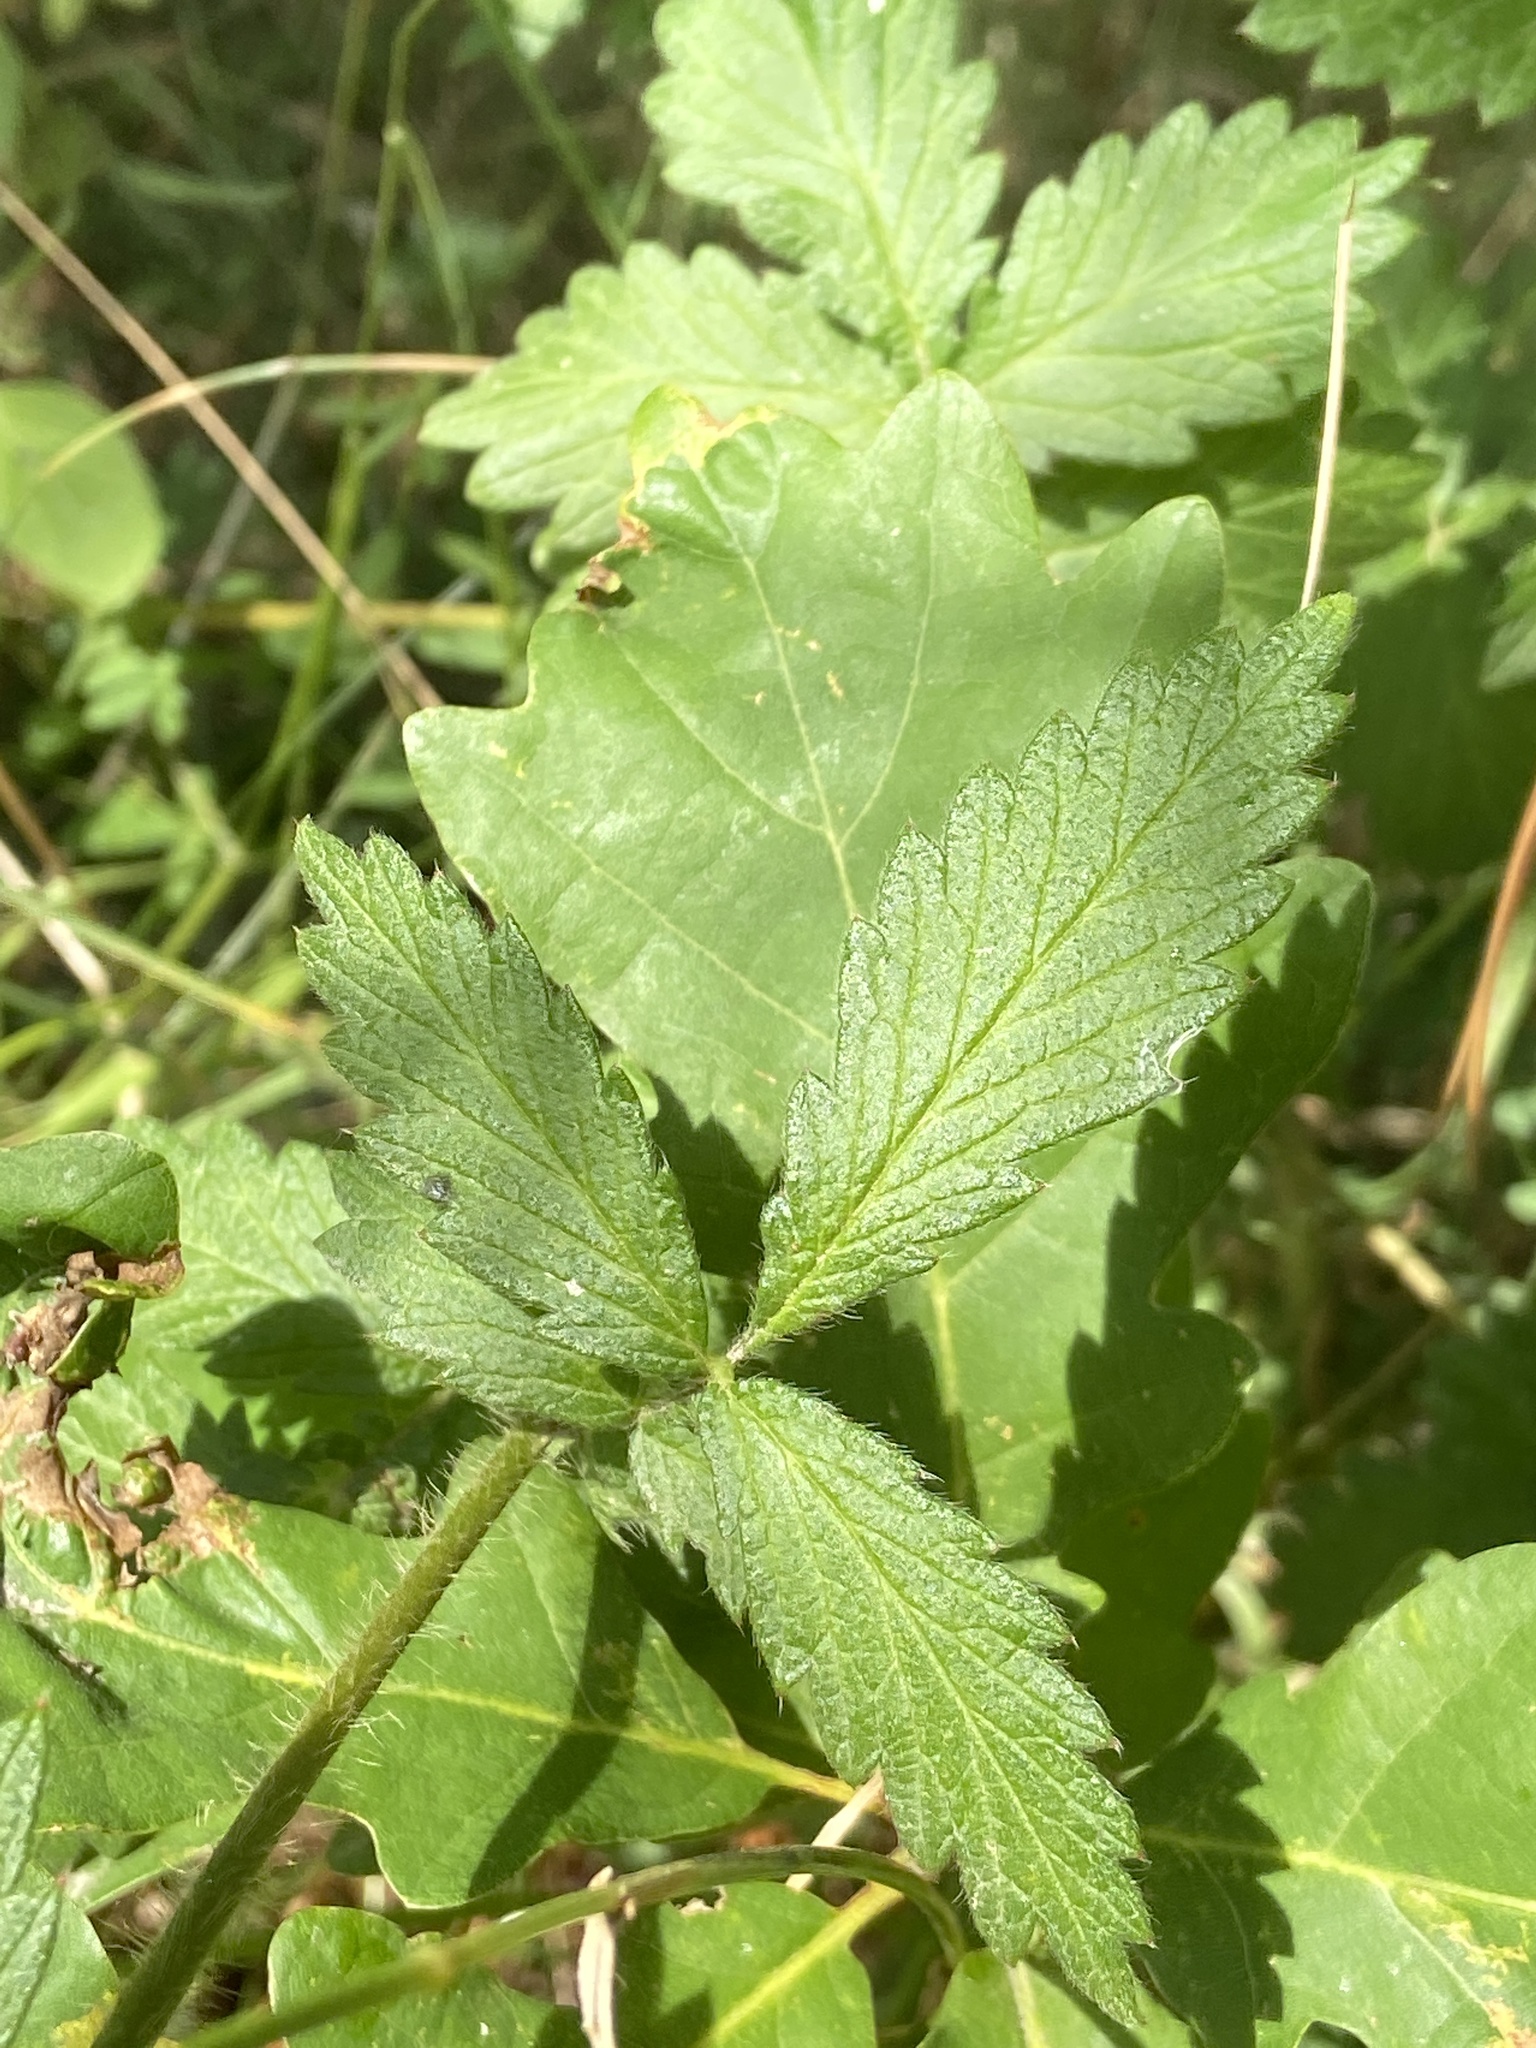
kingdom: Plantae
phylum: Tracheophyta
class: Magnoliopsida
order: Rosales
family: Rosaceae
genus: Agrimonia
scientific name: Agrimonia eupatoria
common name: Agrimony
